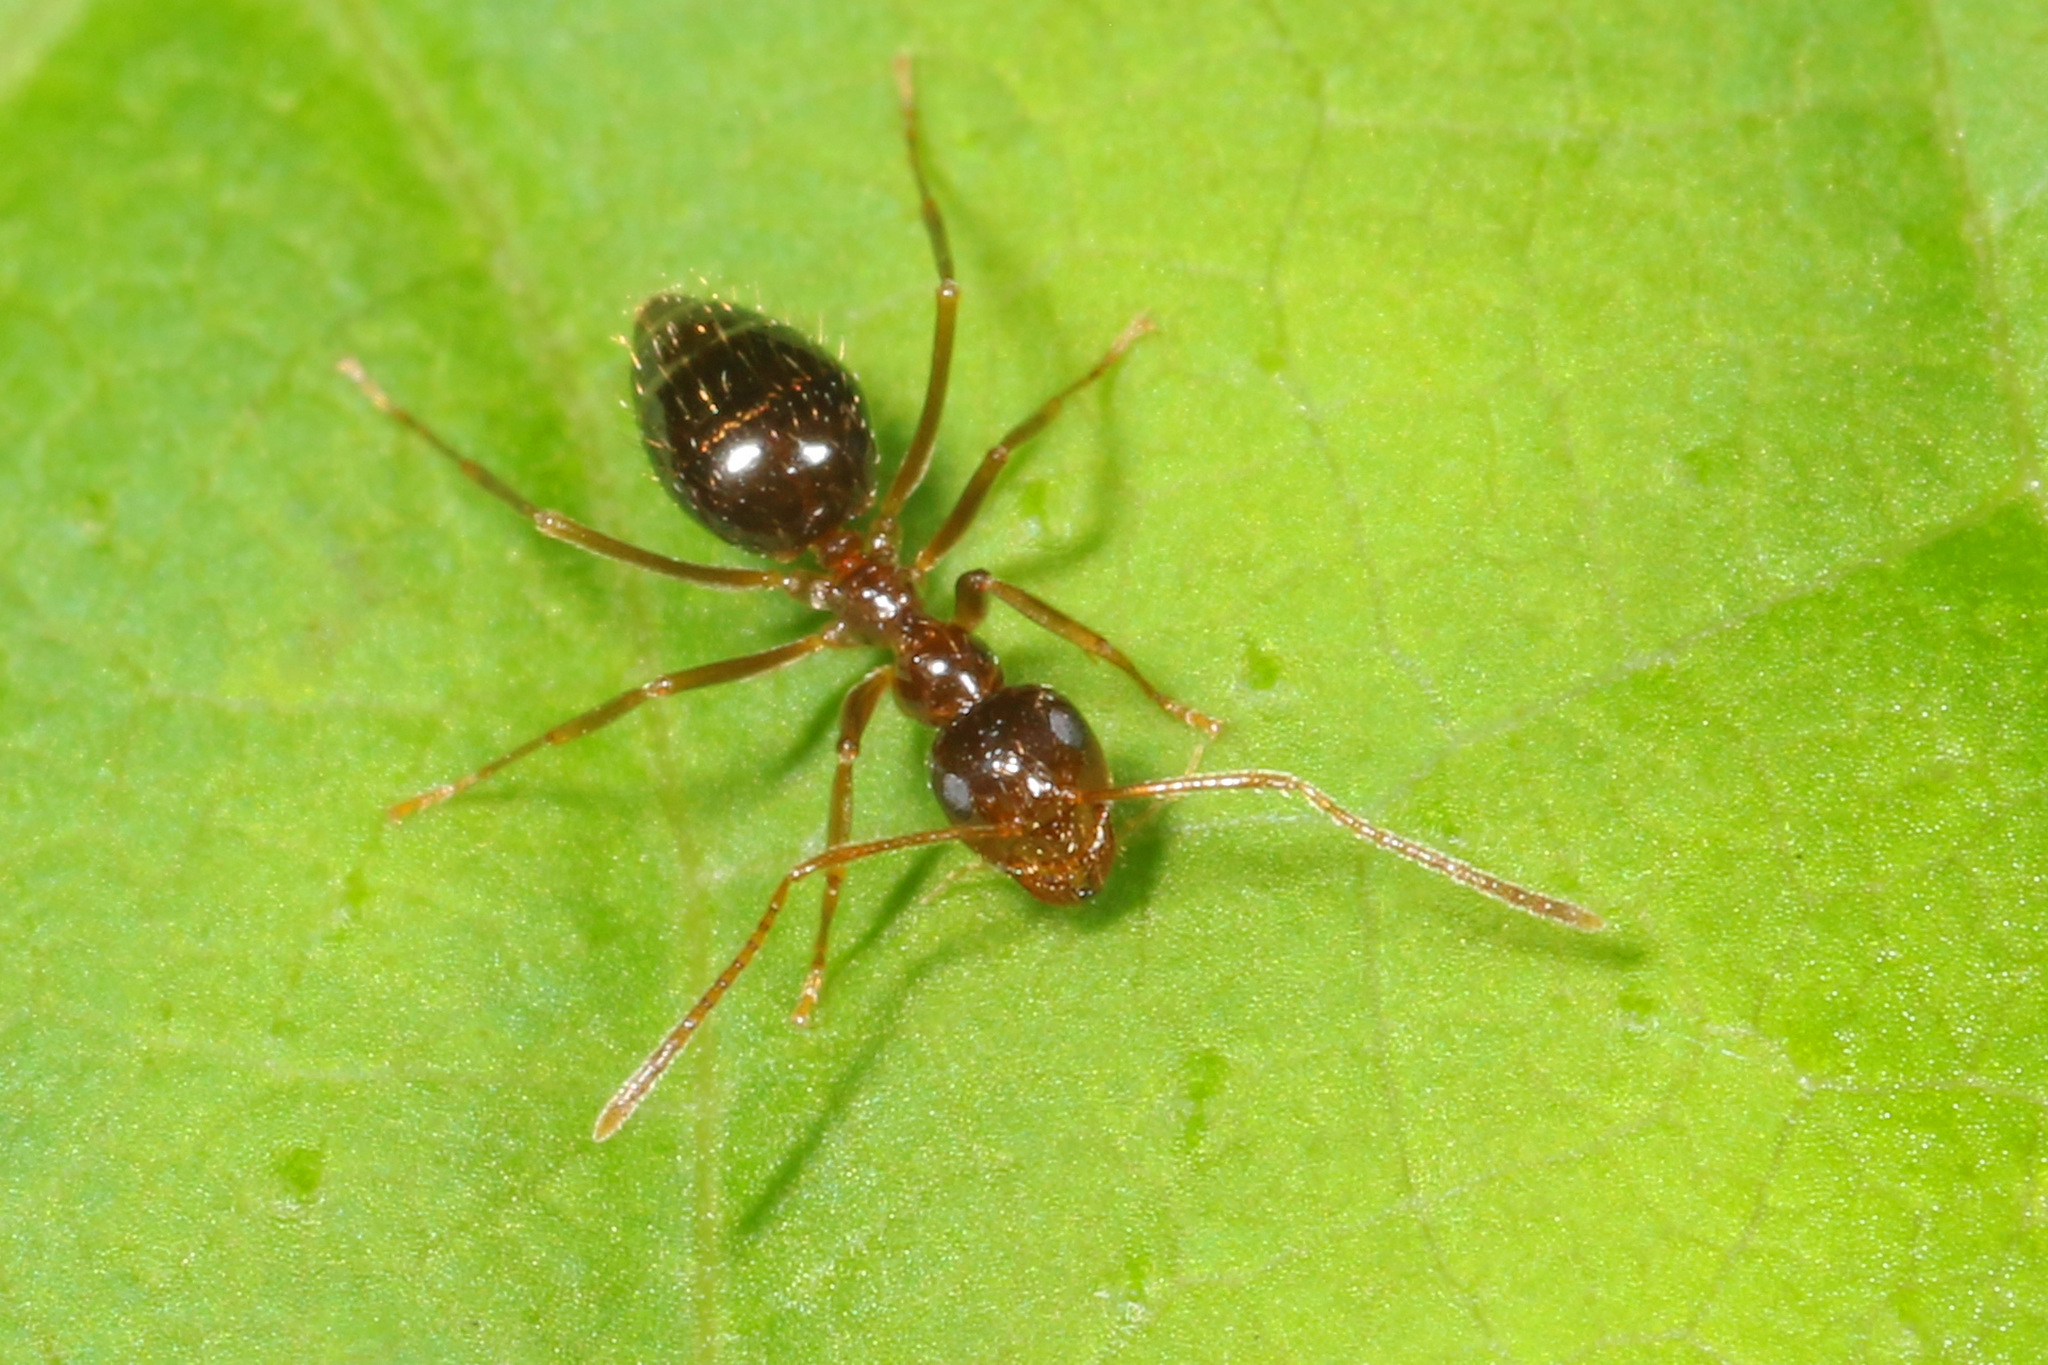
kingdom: Animalia
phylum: Arthropoda
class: Insecta
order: Hymenoptera
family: Formicidae
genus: Prenolepis
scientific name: Prenolepis imparis
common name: Small honey ant
